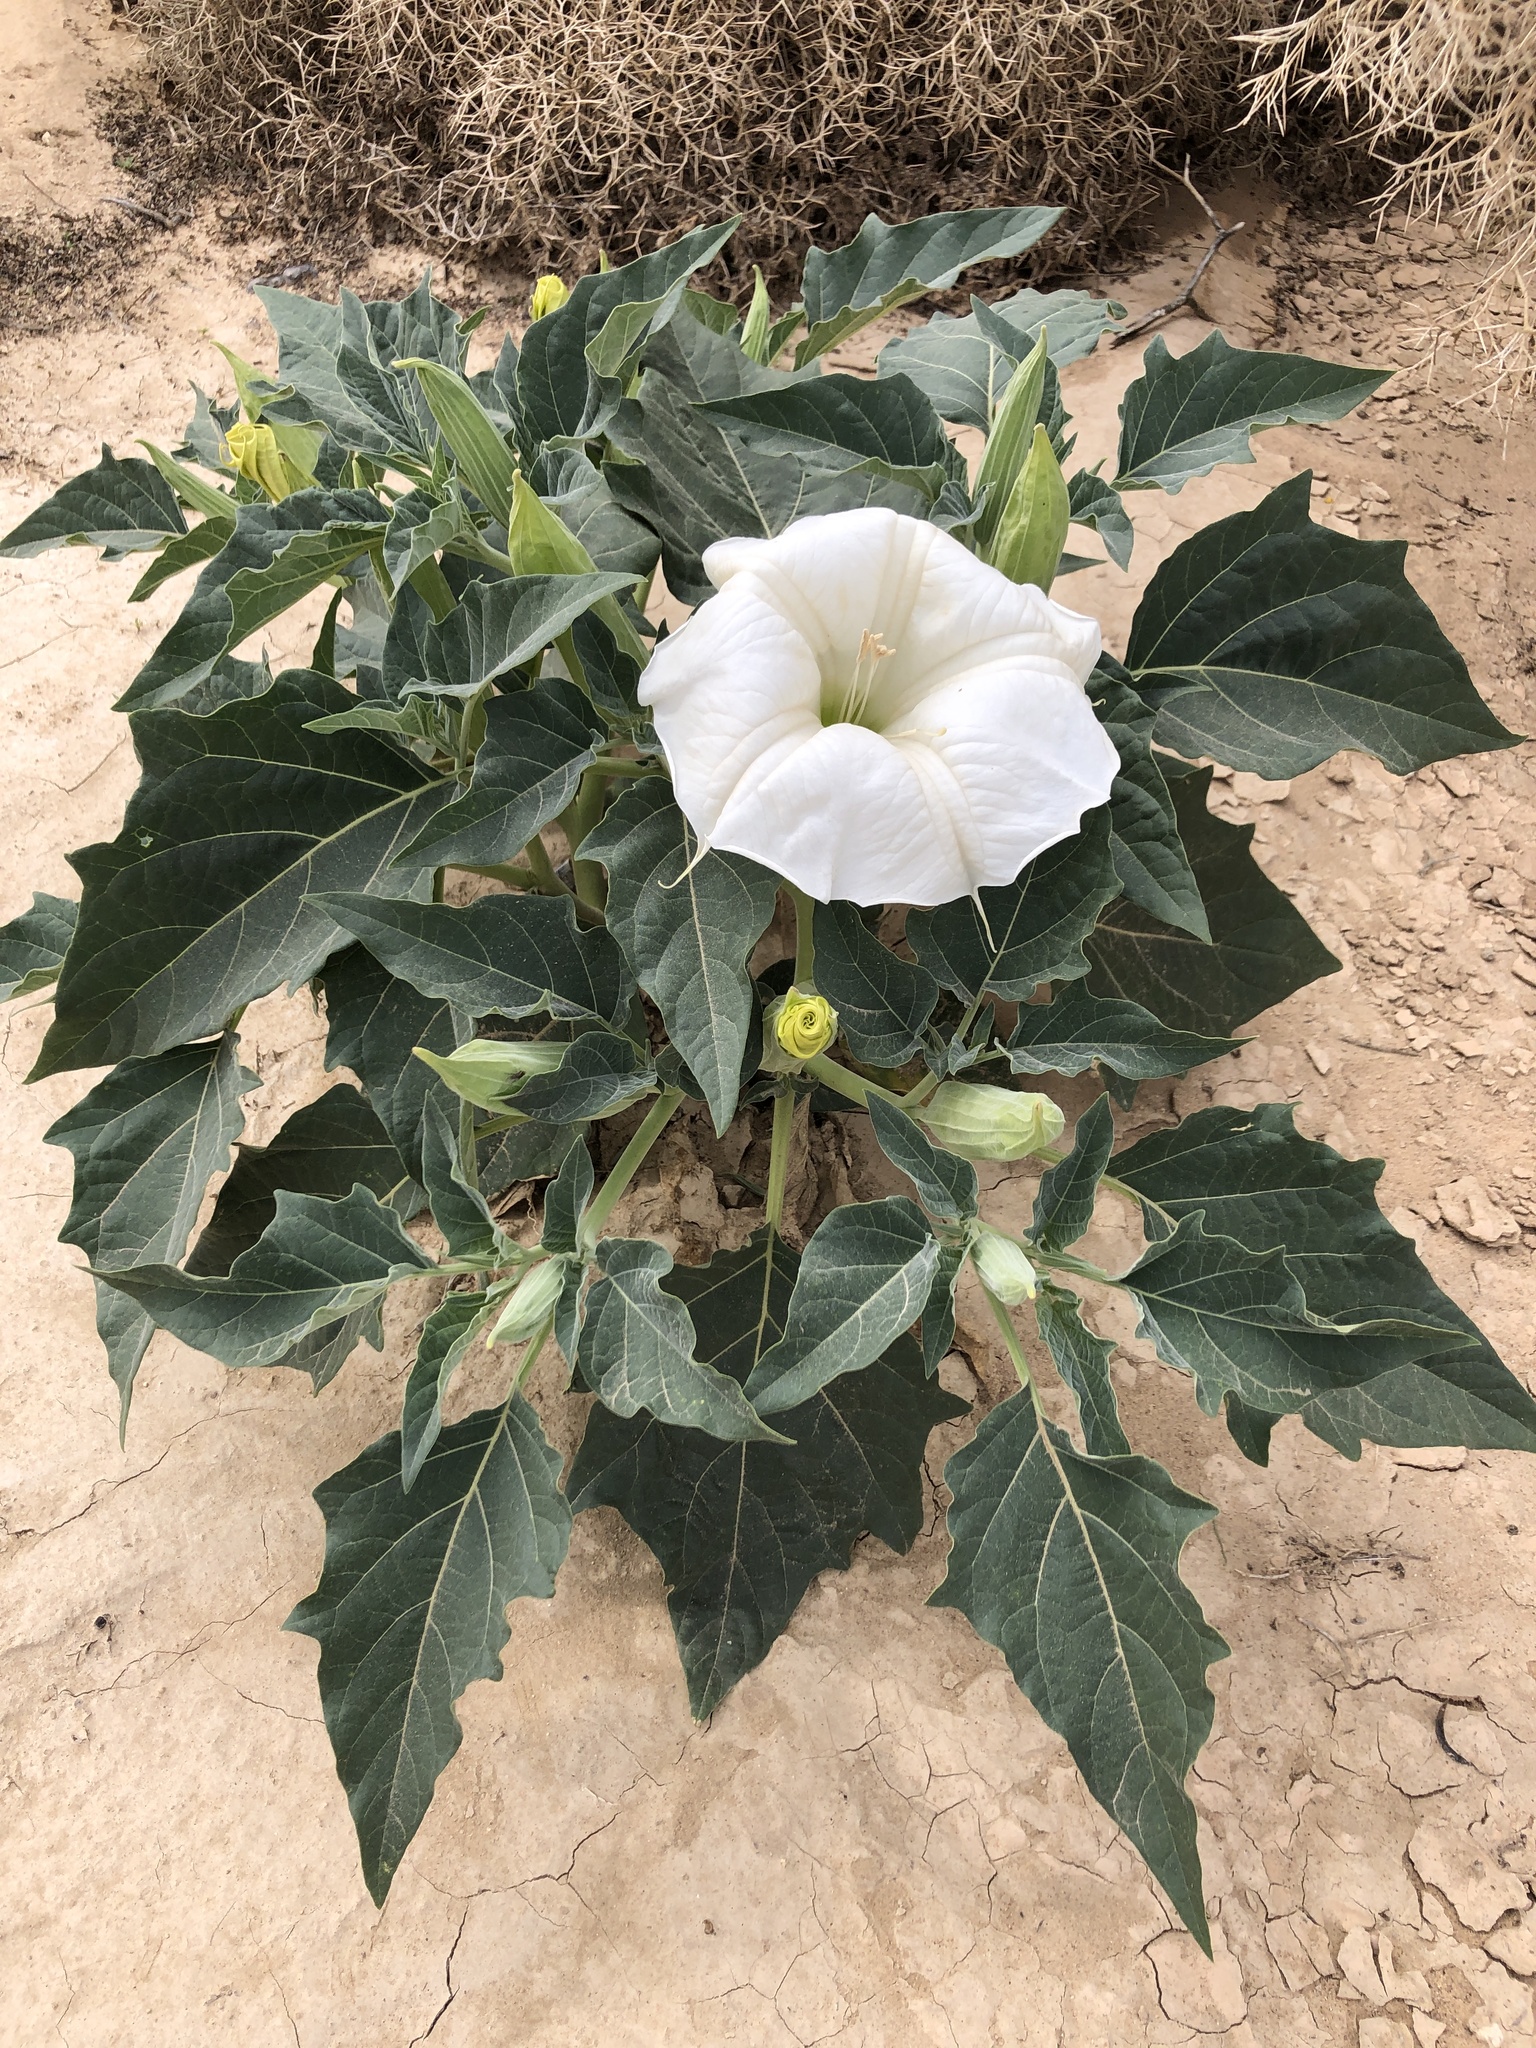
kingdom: Plantae
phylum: Tracheophyta
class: Magnoliopsida
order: Solanales
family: Solanaceae
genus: Datura
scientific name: Datura wrightii
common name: Sacred thorn-apple
